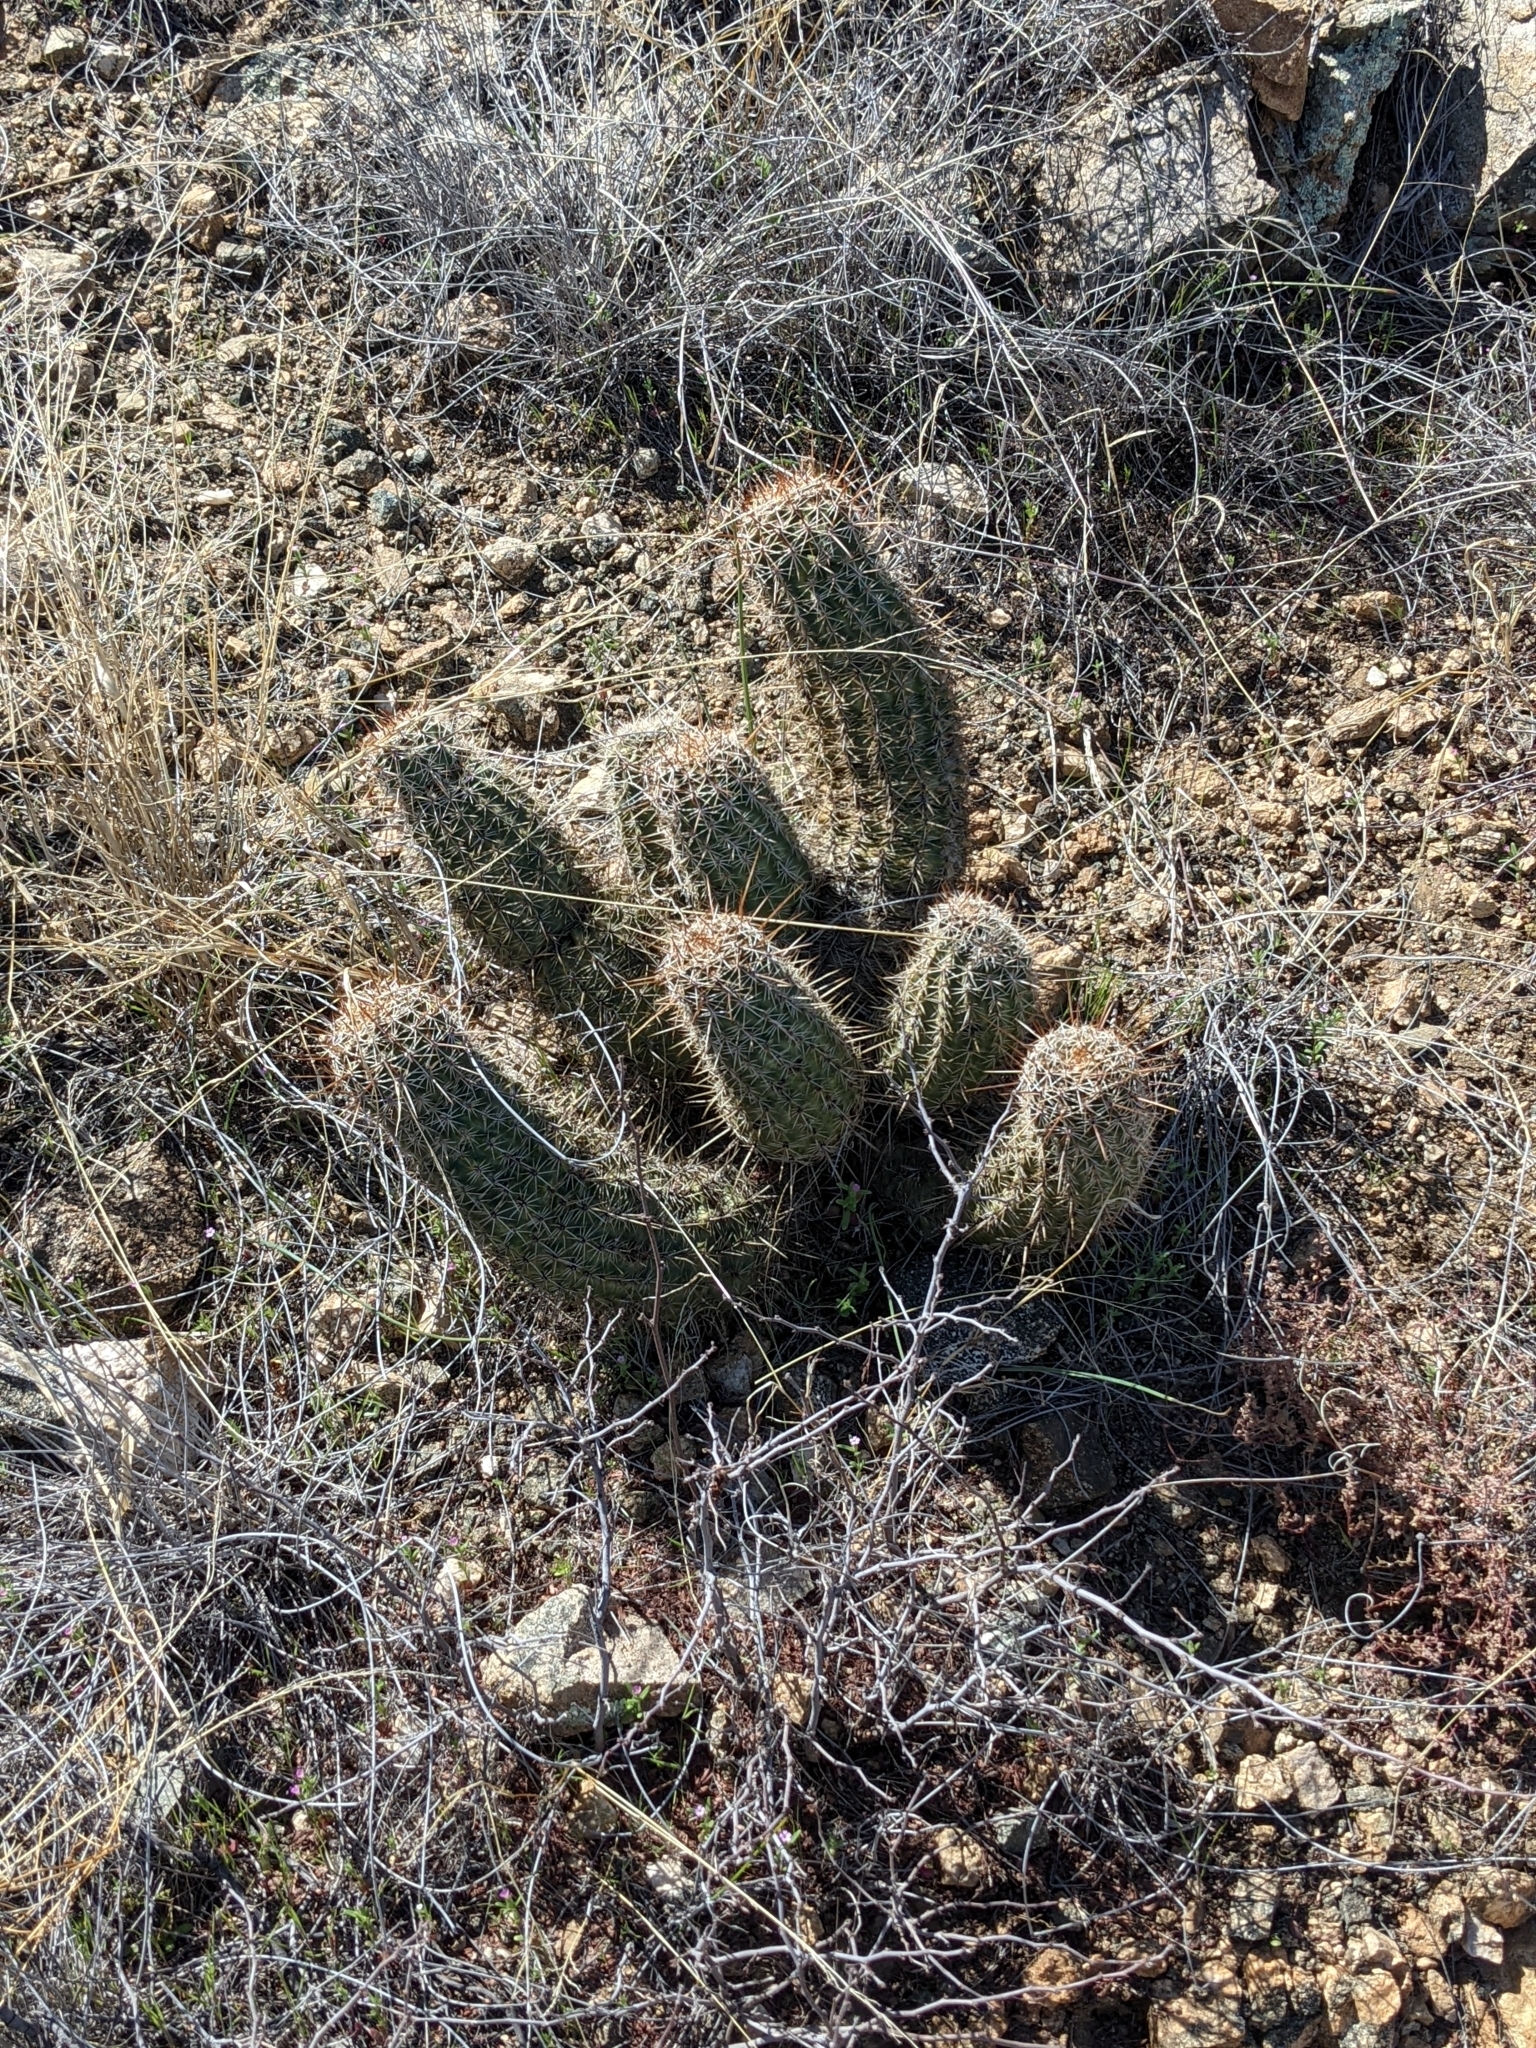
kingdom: Plantae
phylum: Tracheophyta
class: Magnoliopsida
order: Caryophyllales
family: Cactaceae
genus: Echinocereus
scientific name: Echinocereus fasciculatus
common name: Bundle hedgehog
